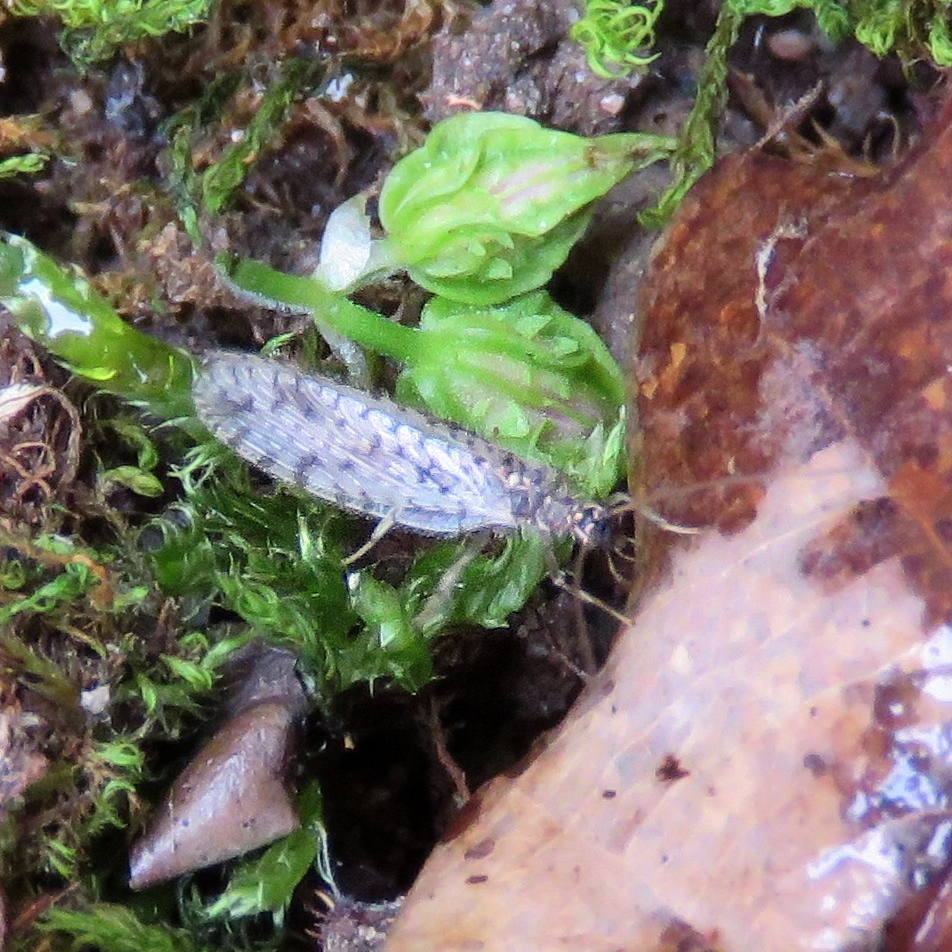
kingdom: Animalia
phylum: Arthropoda
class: Insecta
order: Neuroptera
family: Hemerobiidae
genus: Micromus
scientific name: Micromus variegatus
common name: Brown lacewing
